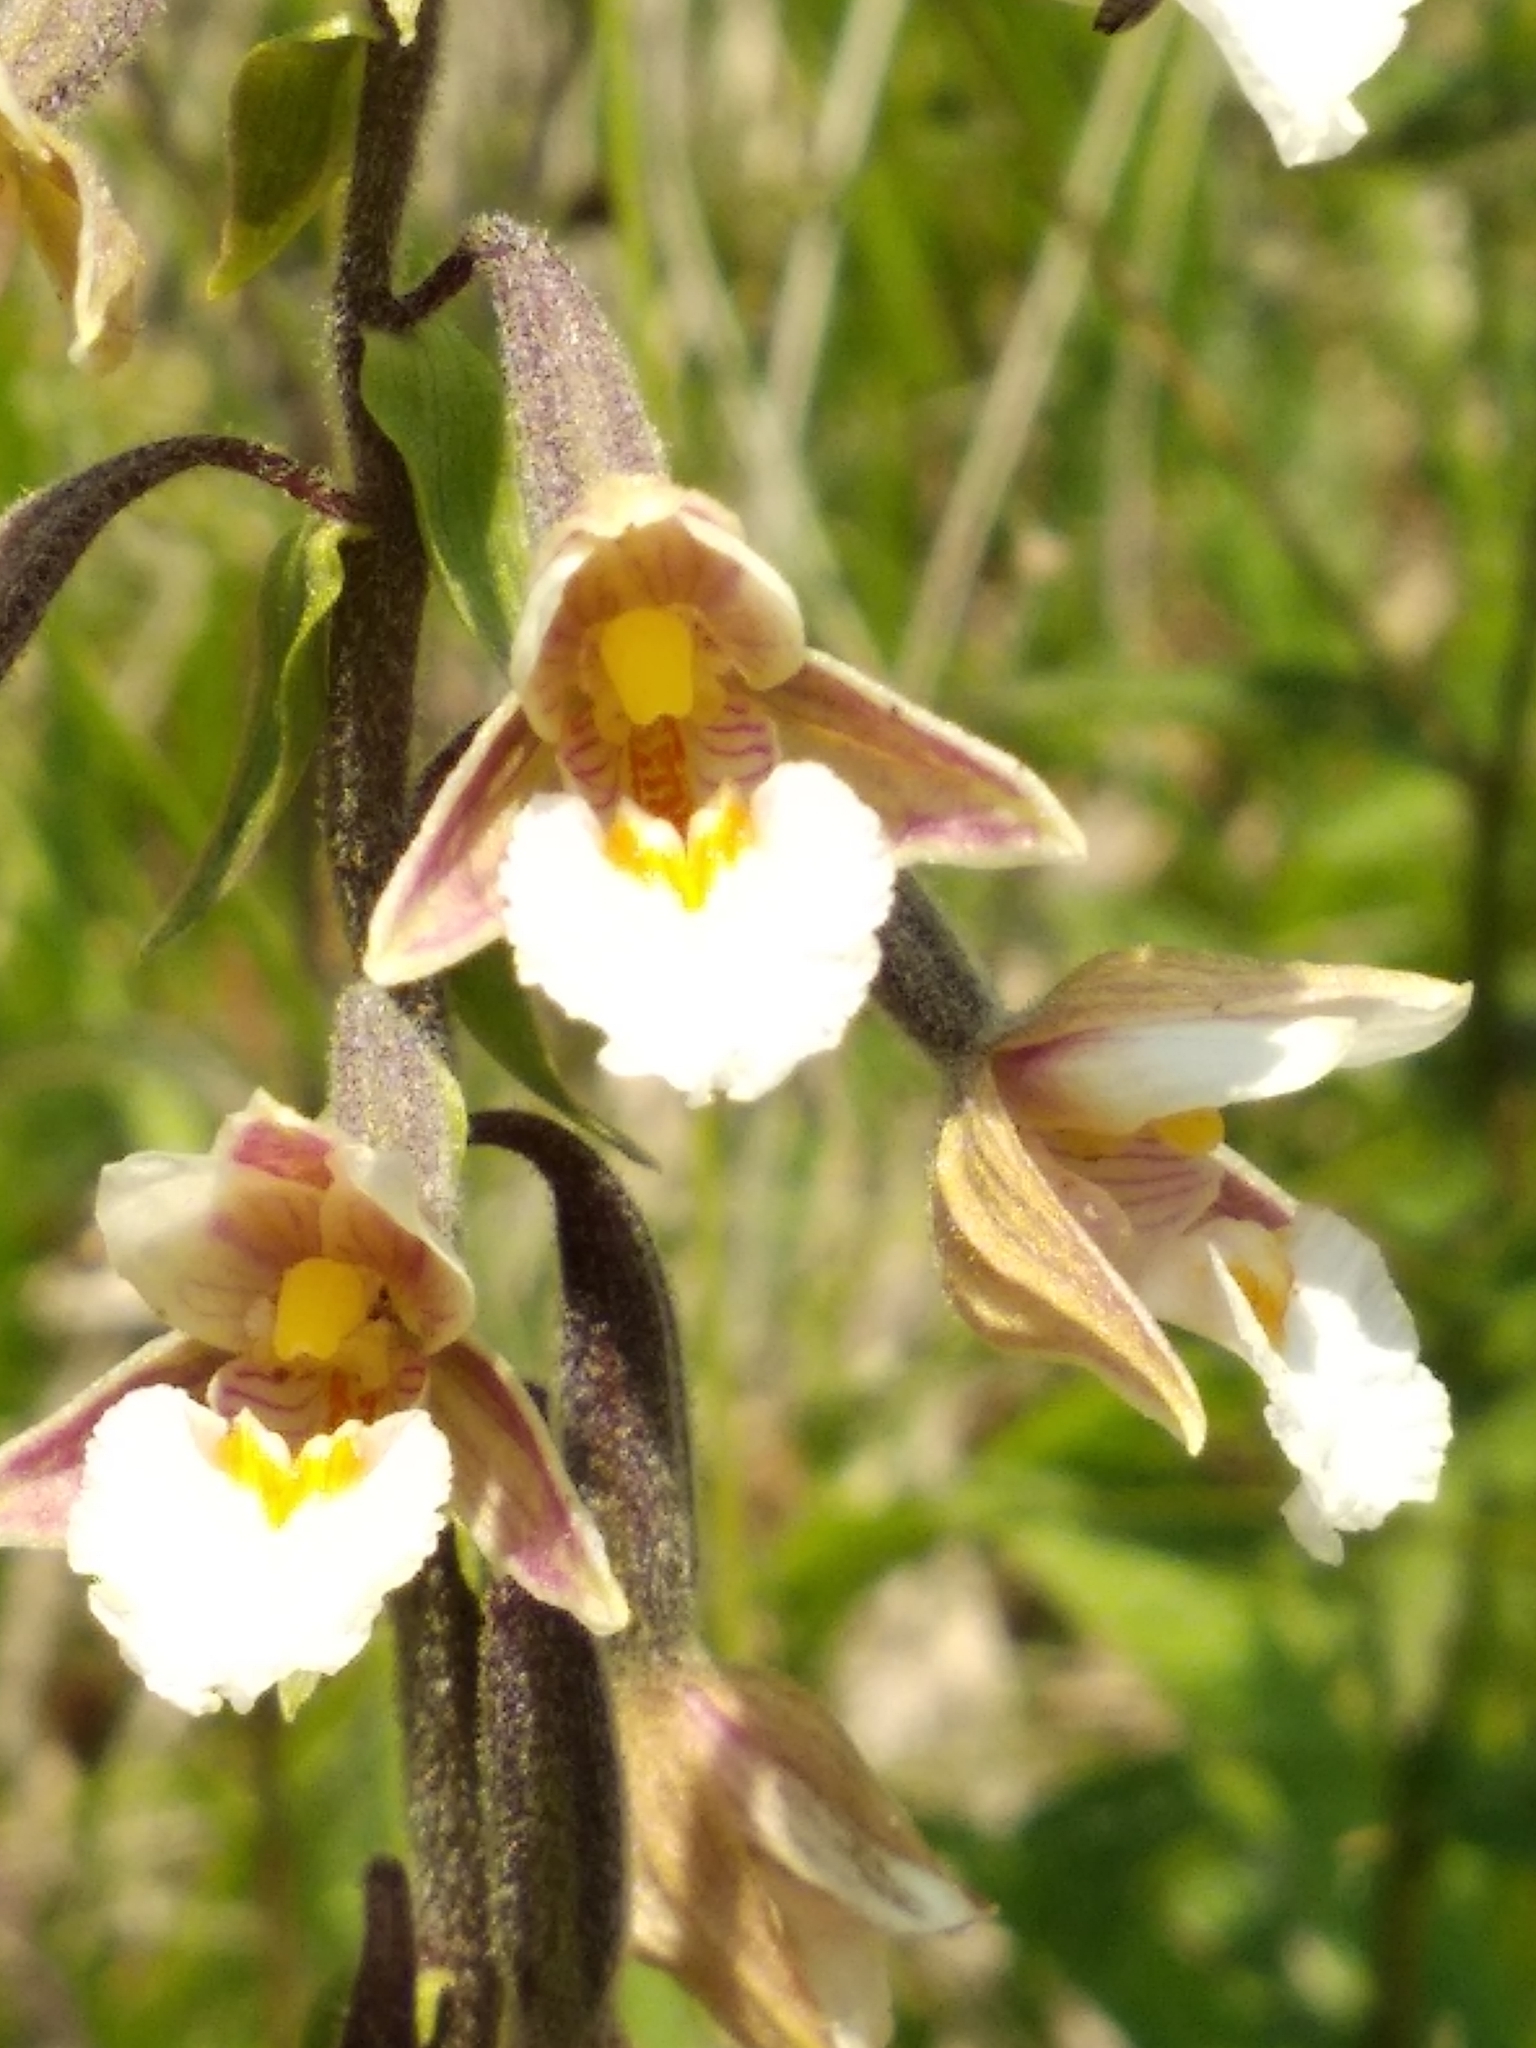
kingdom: Plantae
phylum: Tracheophyta
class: Liliopsida
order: Asparagales
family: Orchidaceae
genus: Epipactis
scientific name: Epipactis palustris
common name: Marsh helleborine
